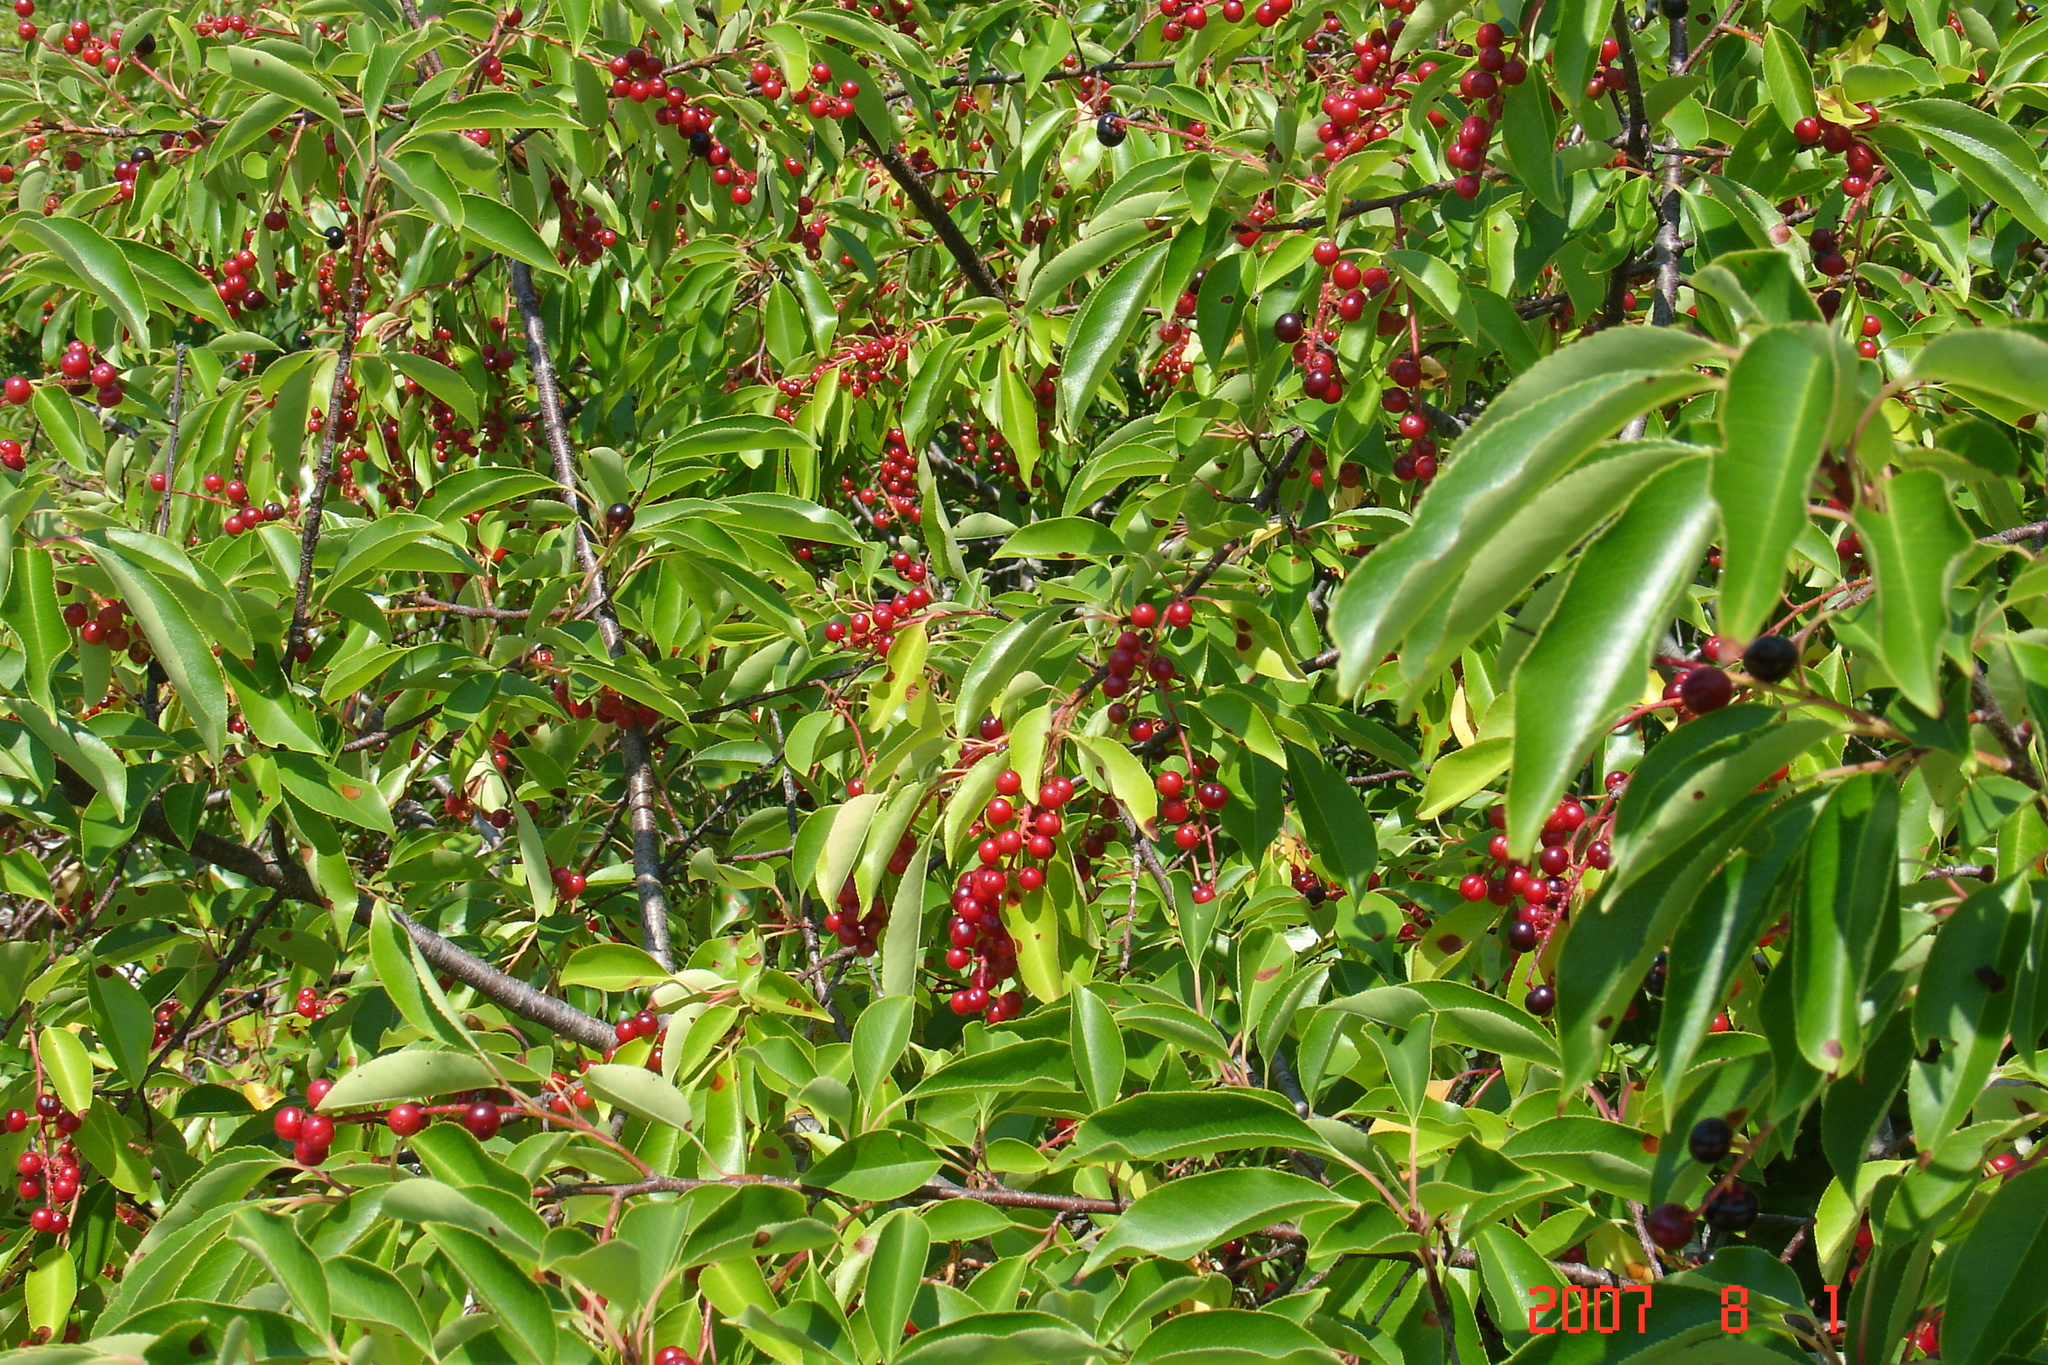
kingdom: Plantae
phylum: Tracheophyta
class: Magnoliopsida
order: Rosales
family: Rosaceae
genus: Prunus
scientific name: Prunus serotina
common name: Black cherry
